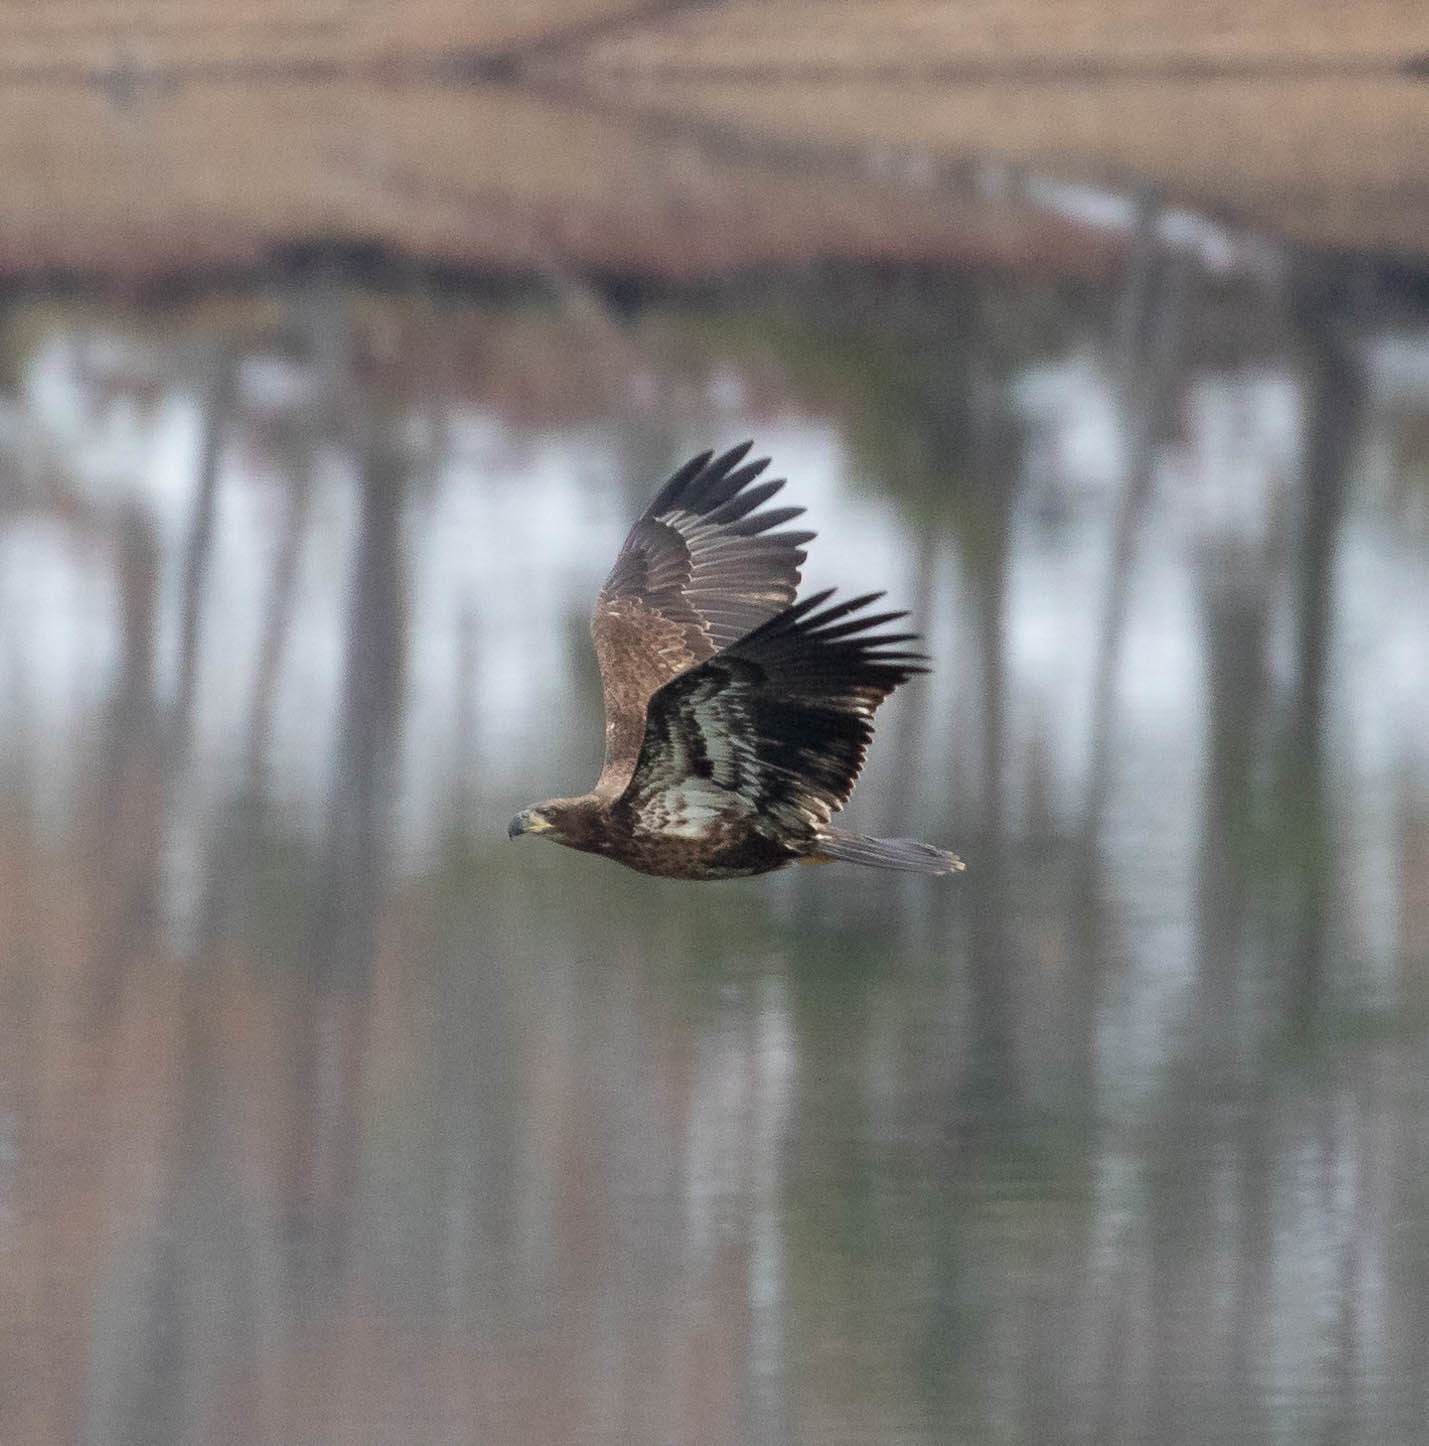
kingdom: Animalia
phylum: Chordata
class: Aves
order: Accipitriformes
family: Accipitridae
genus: Haliaeetus
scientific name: Haliaeetus leucocephalus
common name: Bald eagle
